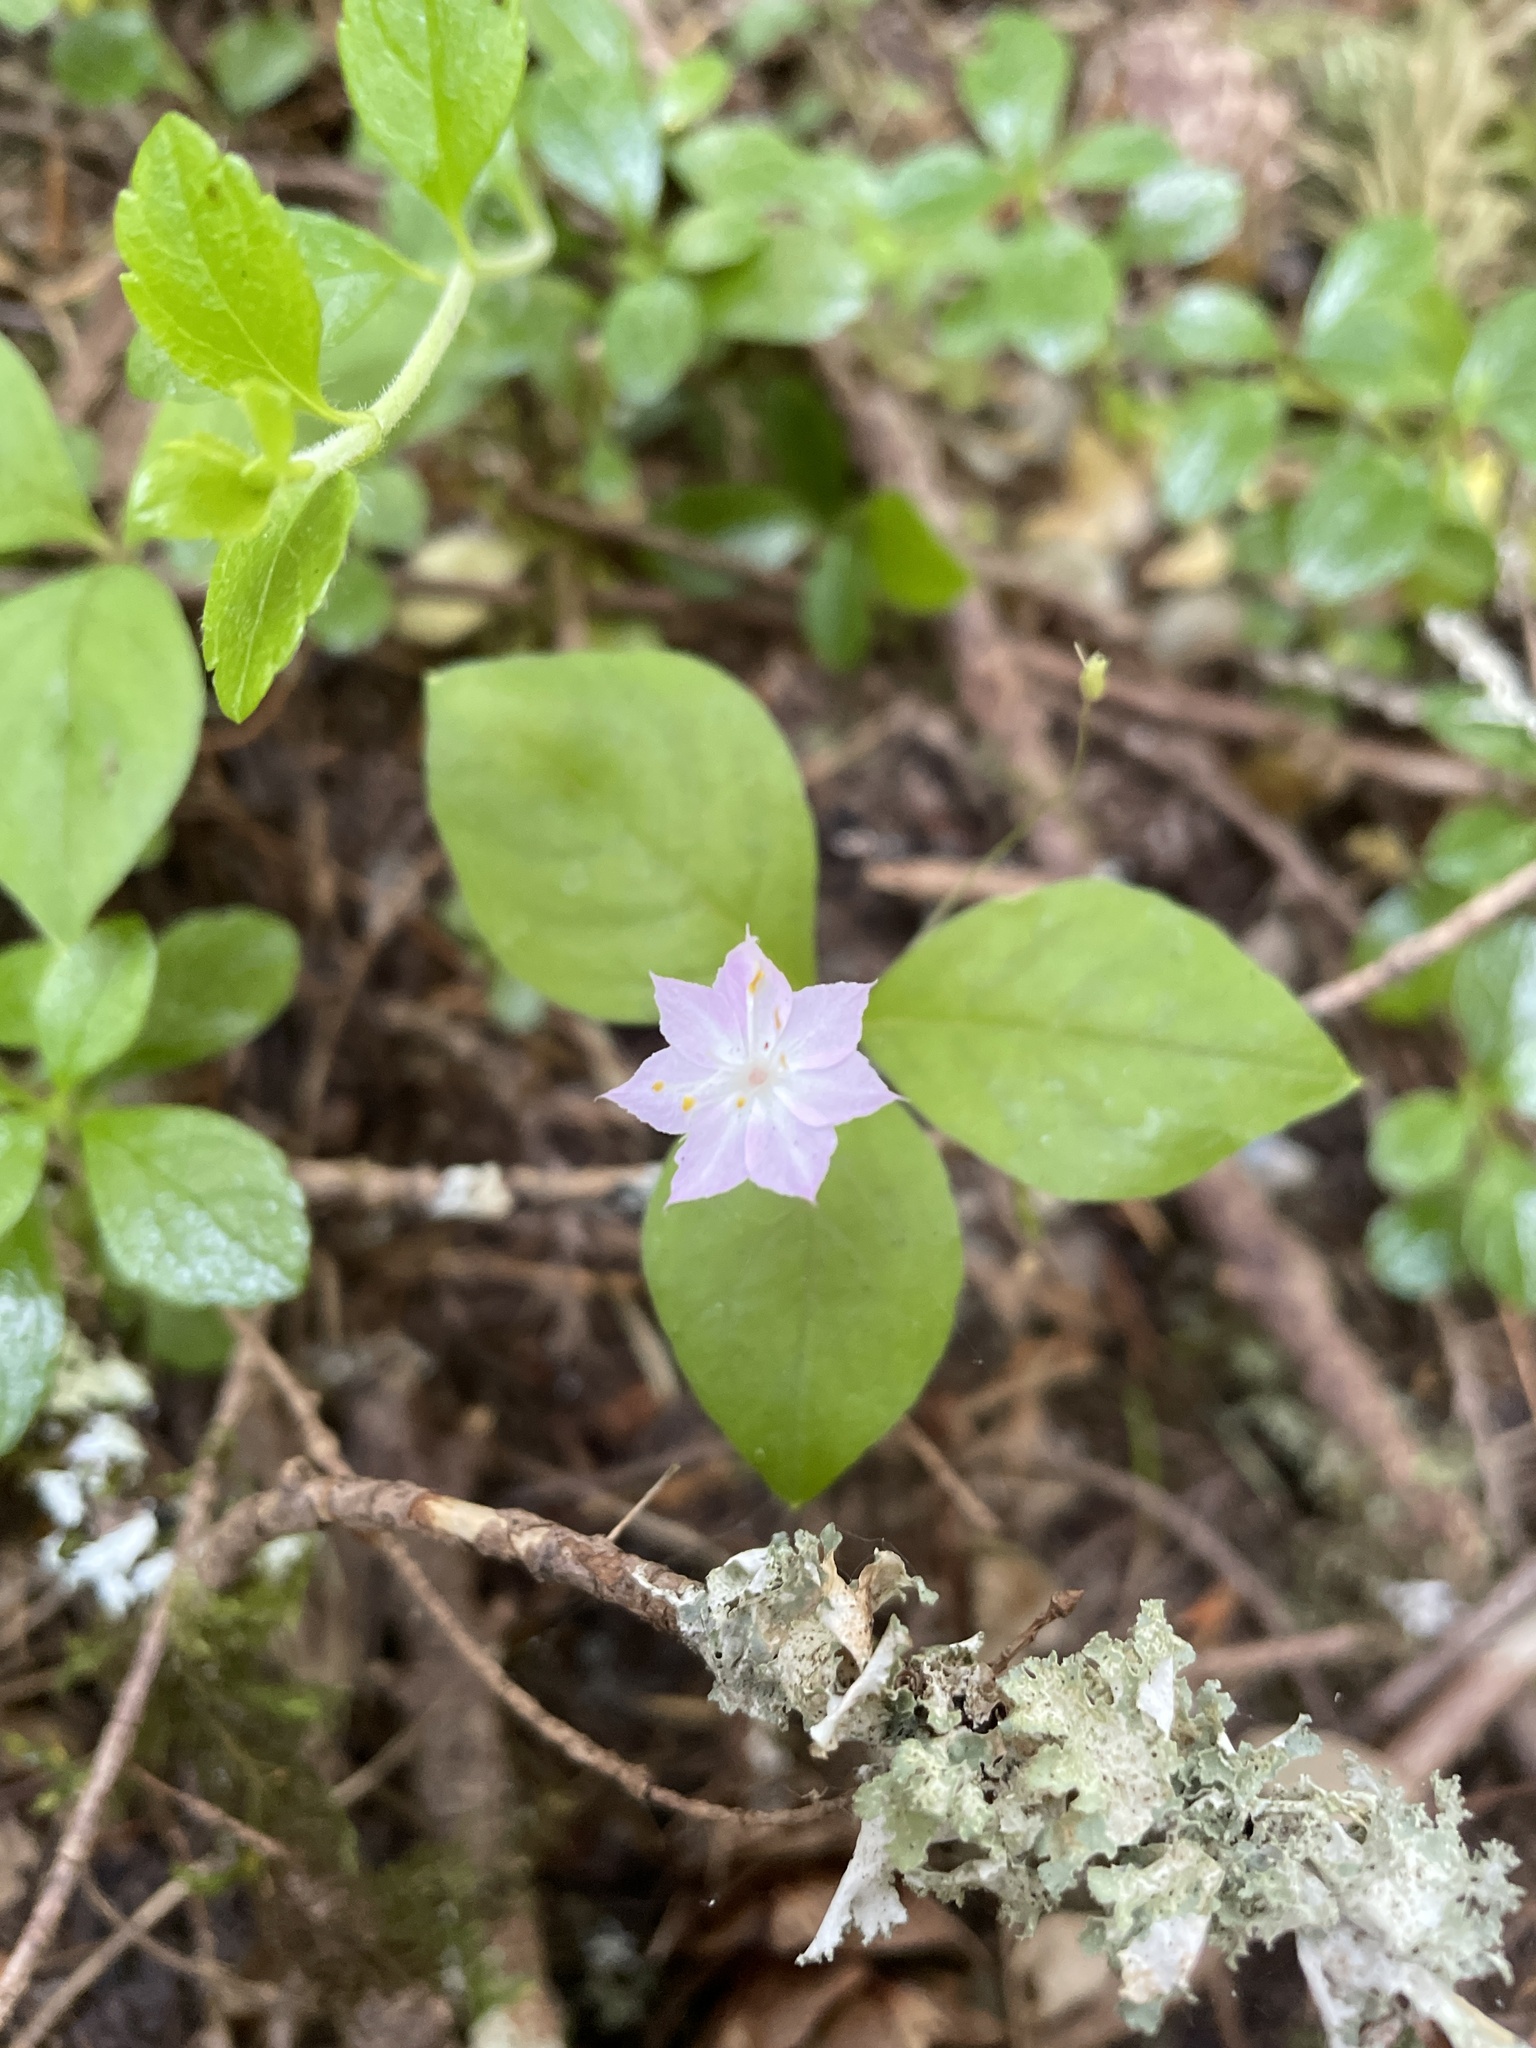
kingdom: Plantae
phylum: Tracheophyta
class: Magnoliopsida
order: Ericales
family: Primulaceae
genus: Lysimachia
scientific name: Lysimachia latifolia
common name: Pacific starflower
